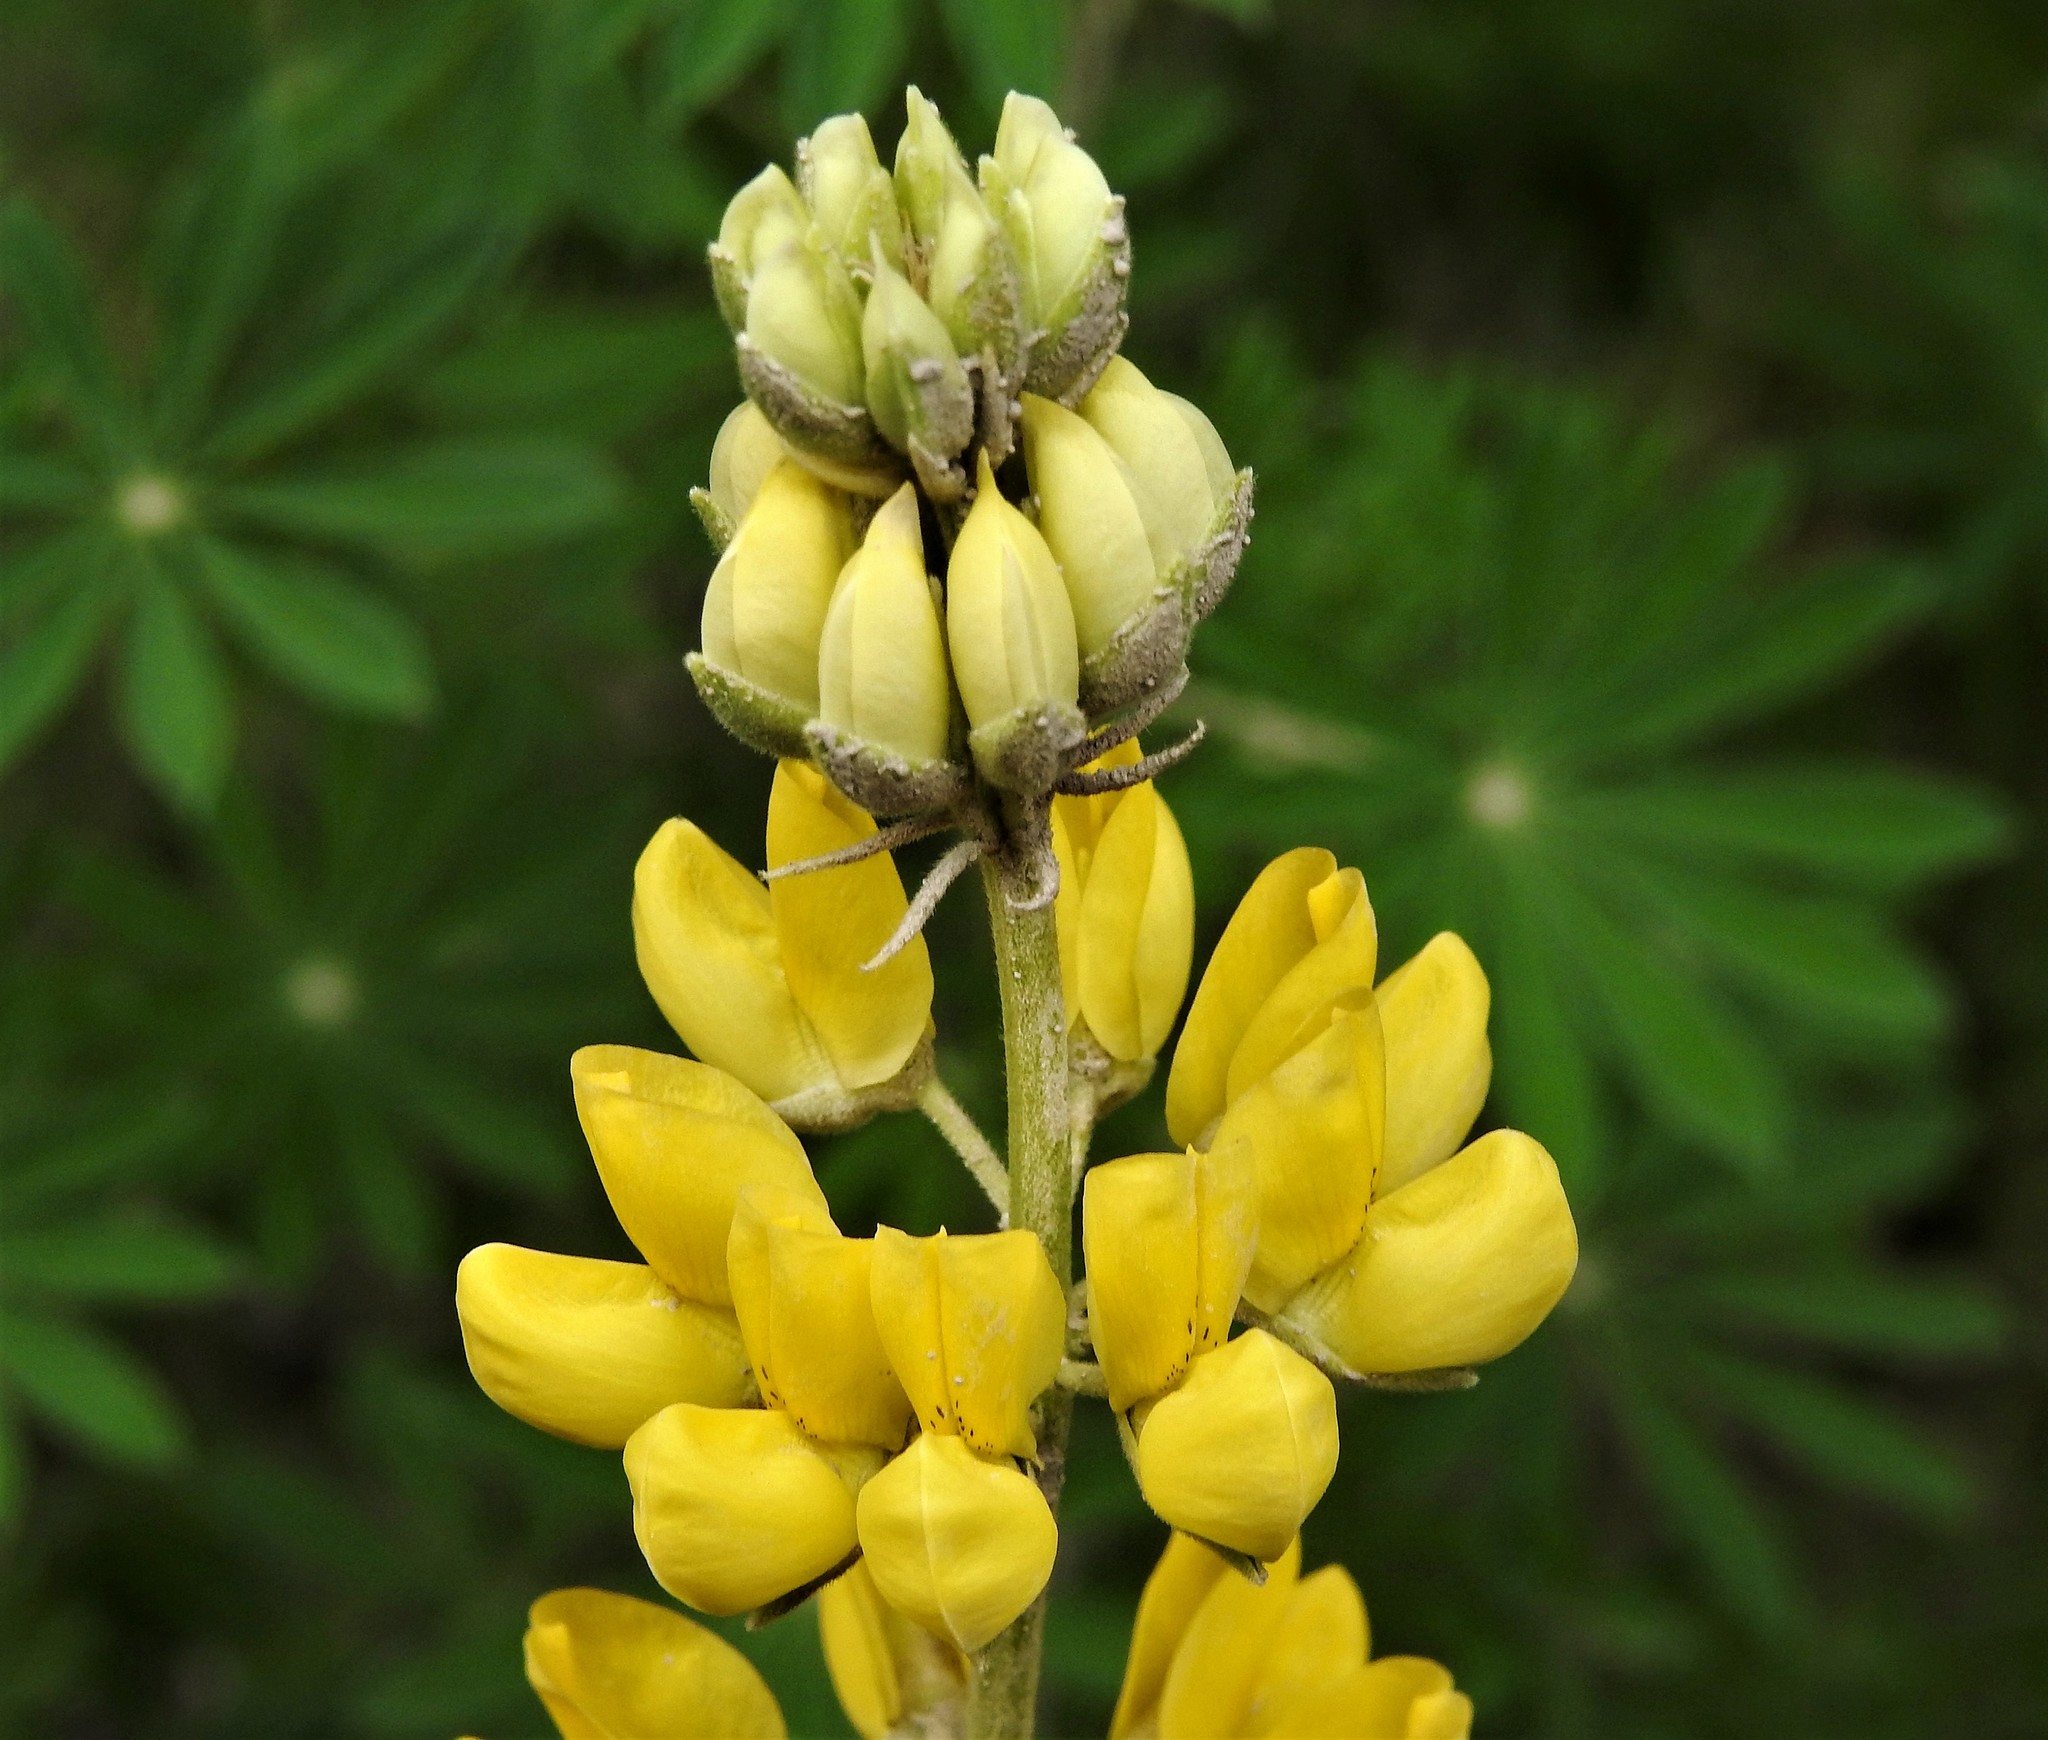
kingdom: Plantae
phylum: Tracheophyta
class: Magnoliopsida
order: Fabales
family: Fabaceae
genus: Lupinus
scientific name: Lupinus arboreus
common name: Yellow bush lupine
